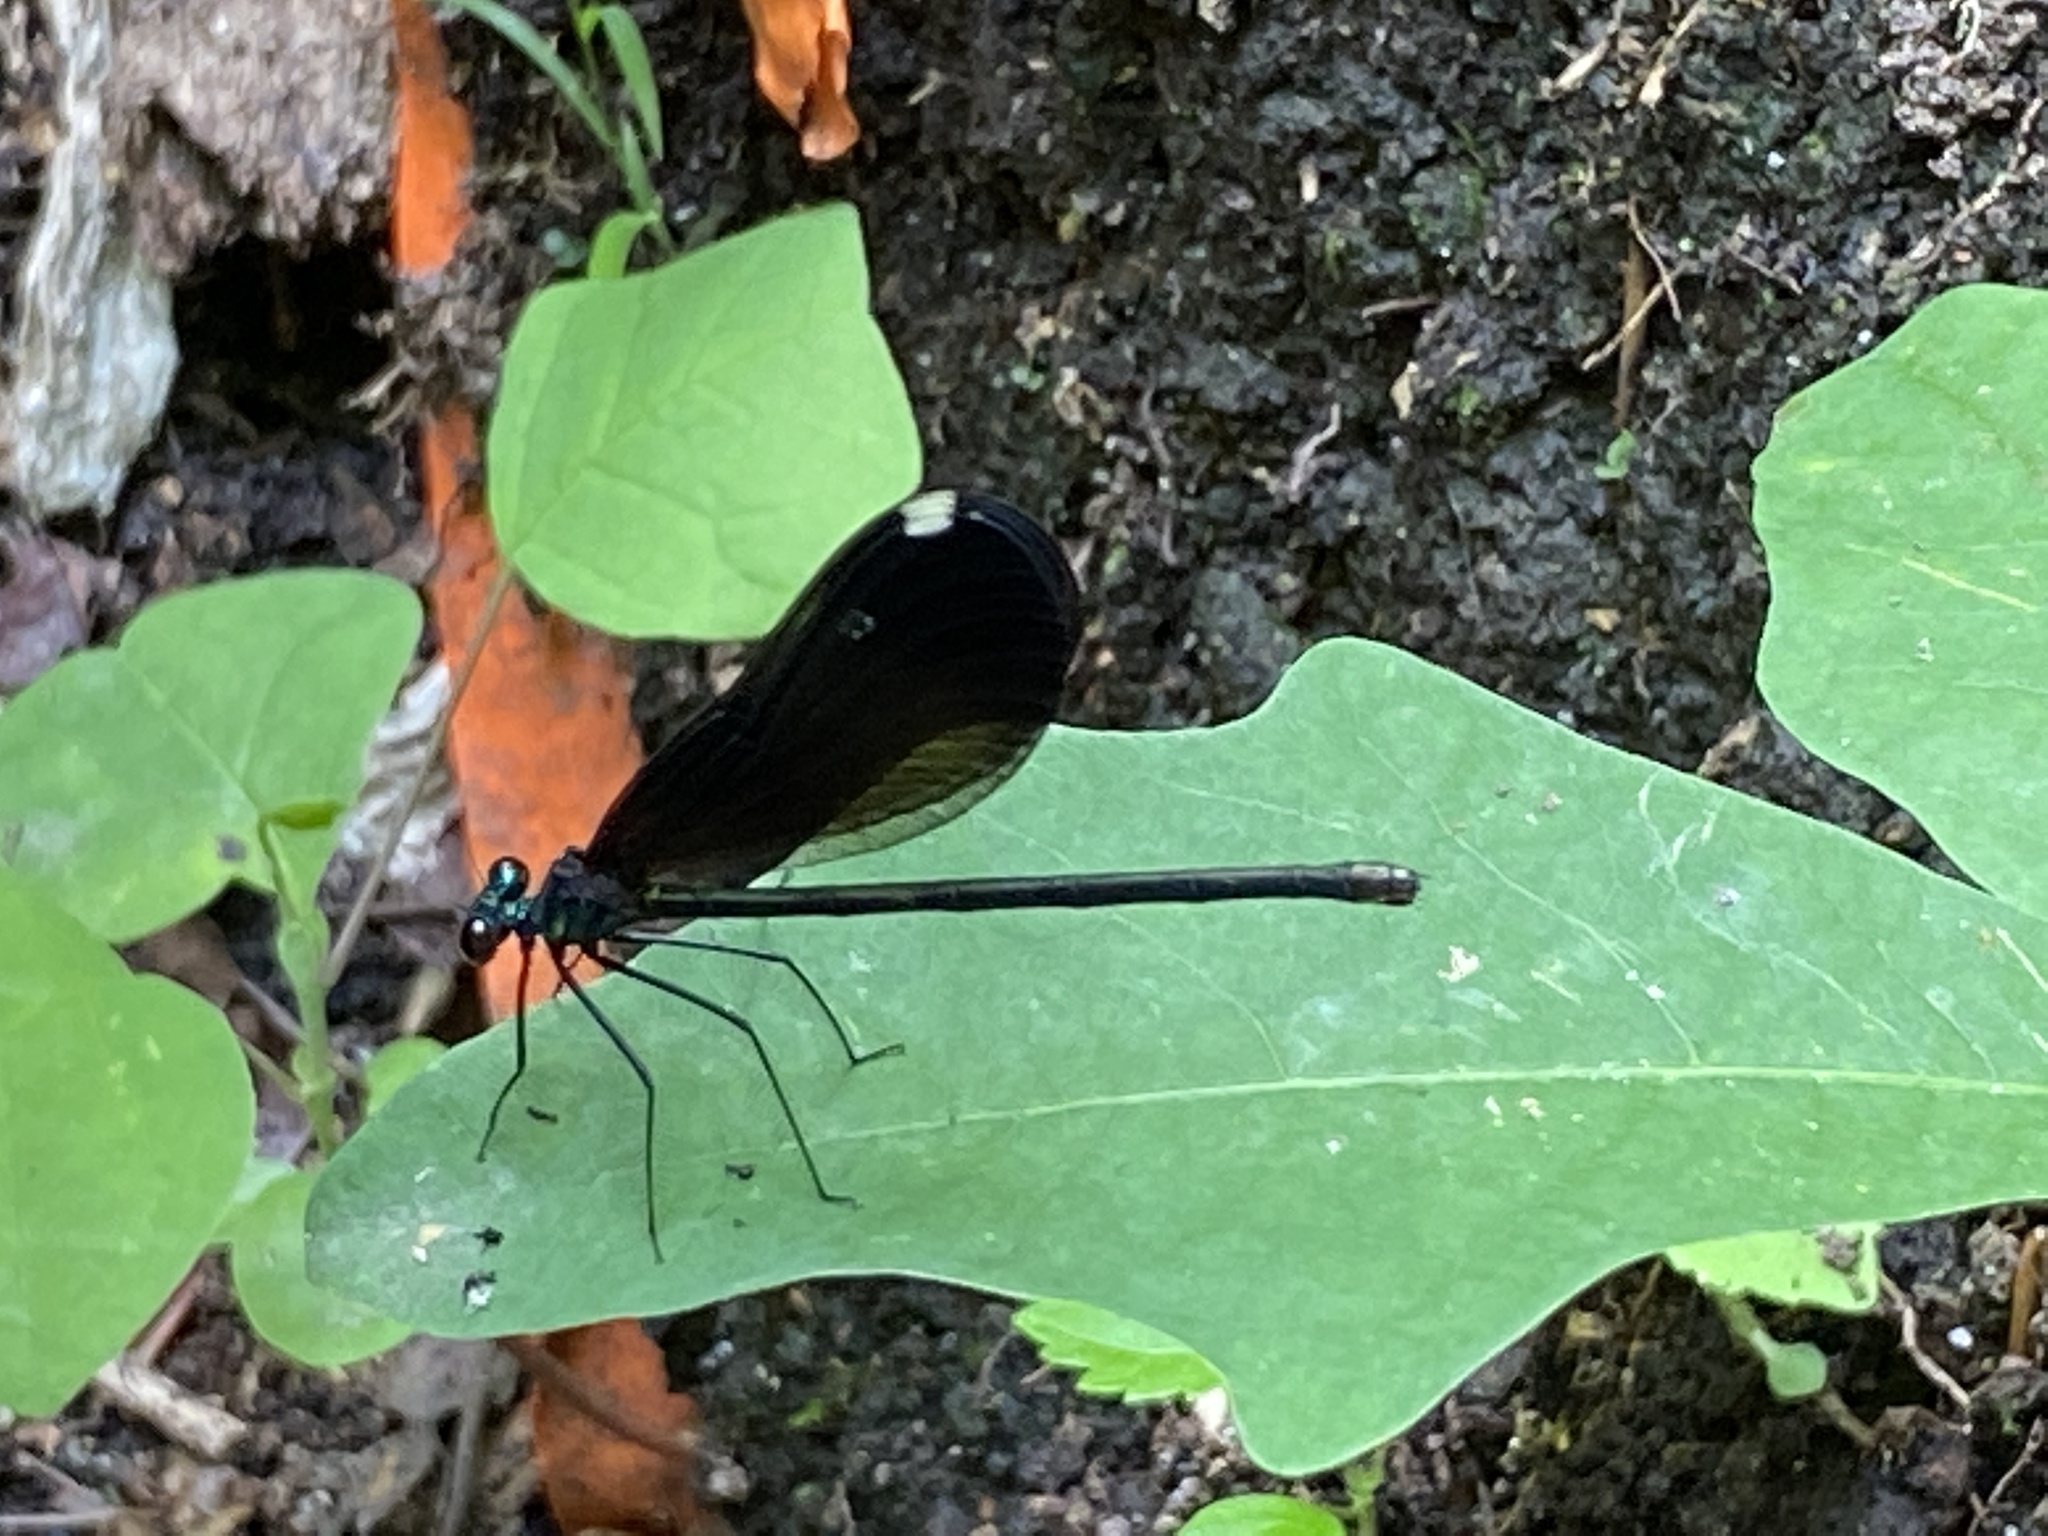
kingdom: Animalia
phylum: Arthropoda
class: Insecta
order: Odonata
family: Calopterygidae
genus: Calopteryx
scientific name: Calopteryx maculata
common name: Ebony jewelwing
